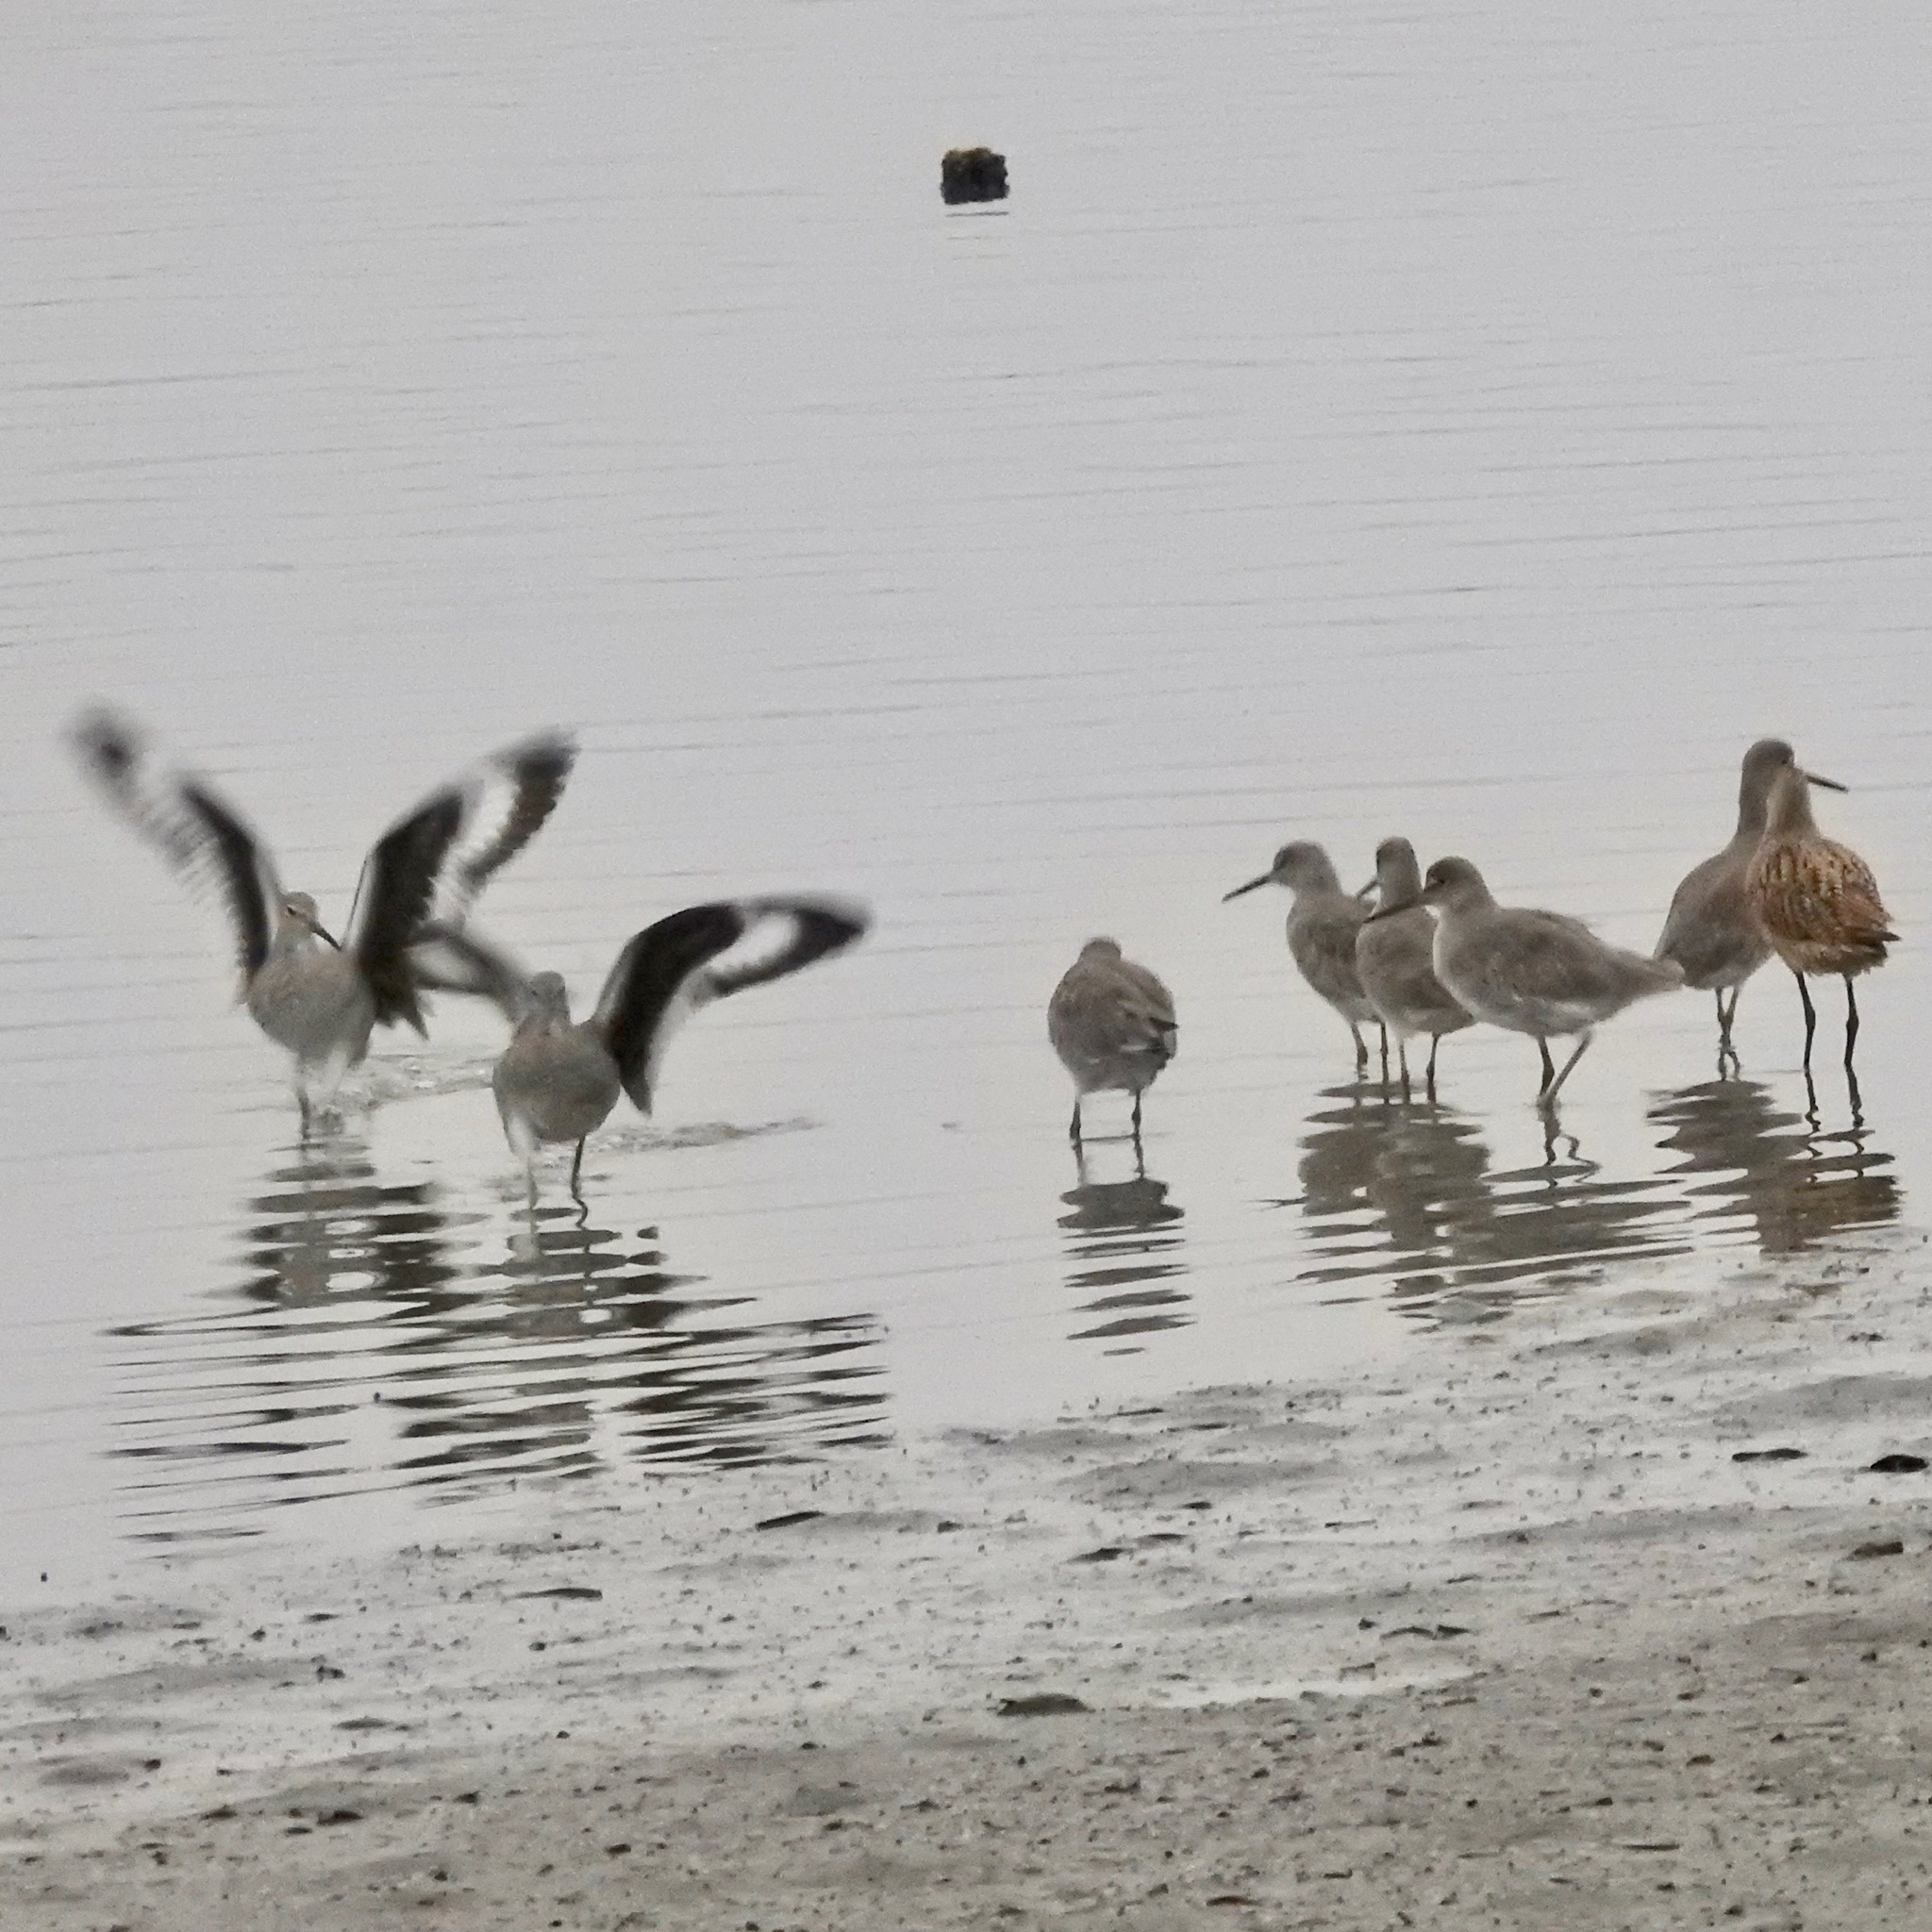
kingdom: Animalia
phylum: Chordata
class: Aves
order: Charadriiformes
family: Scolopacidae
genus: Tringa
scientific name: Tringa semipalmata
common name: Willet
